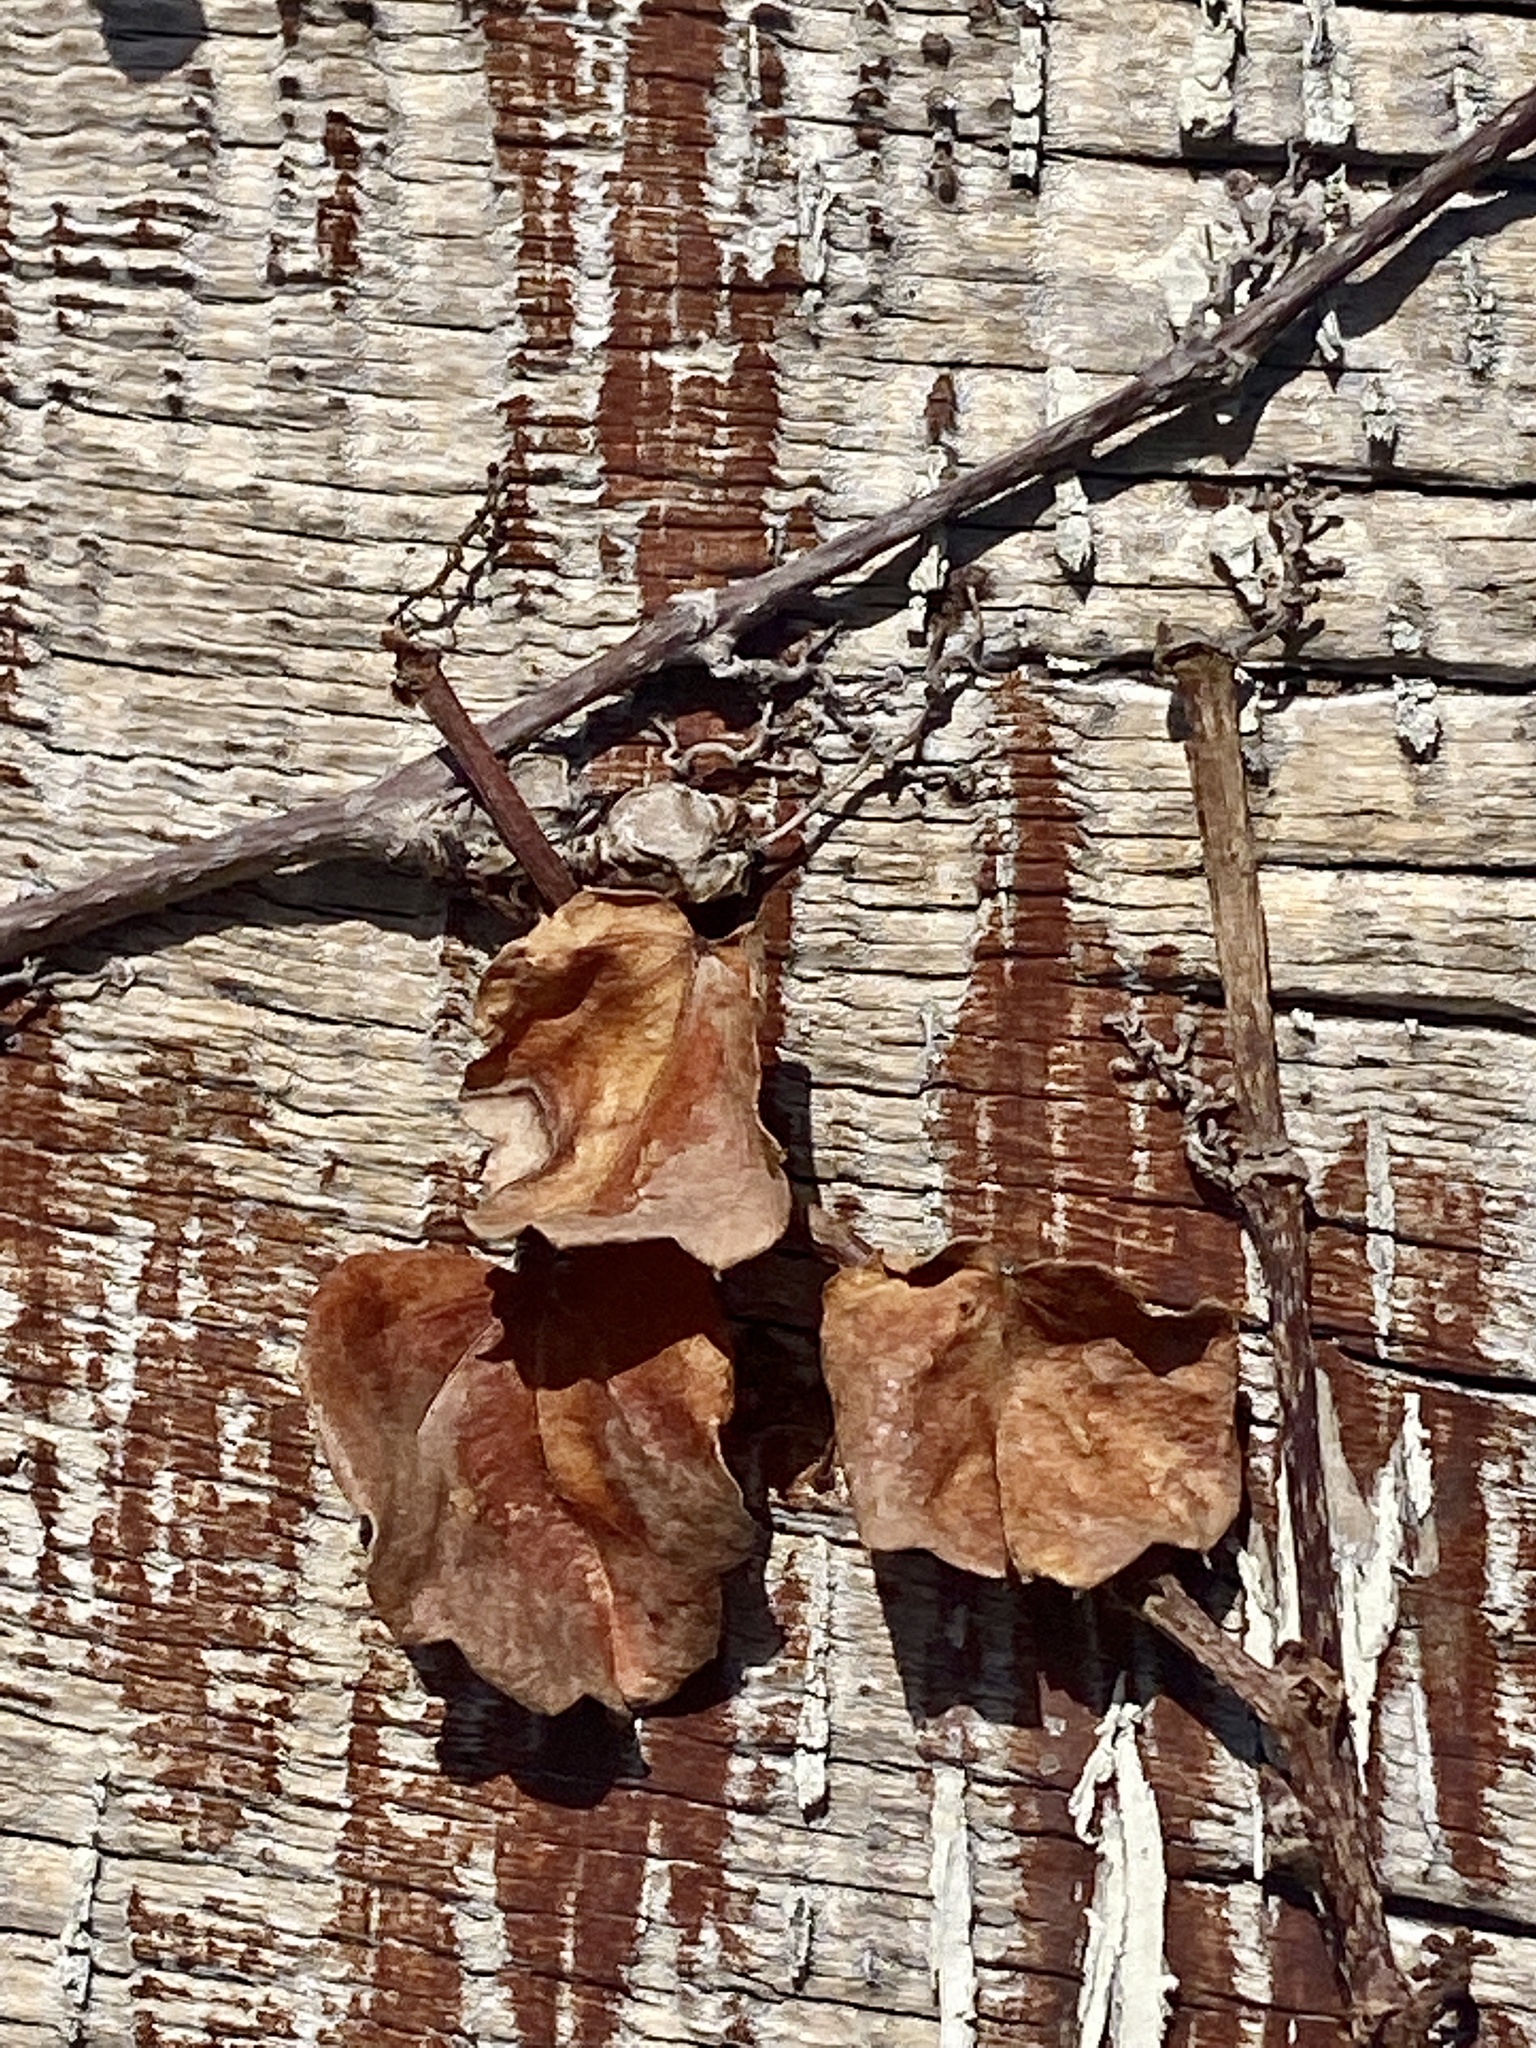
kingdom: Plantae
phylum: Tracheophyta
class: Magnoliopsida
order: Vitales
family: Vitaceae
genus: Parthenocissus
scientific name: Parthenocissus tricuspidata
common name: Boston ivy
